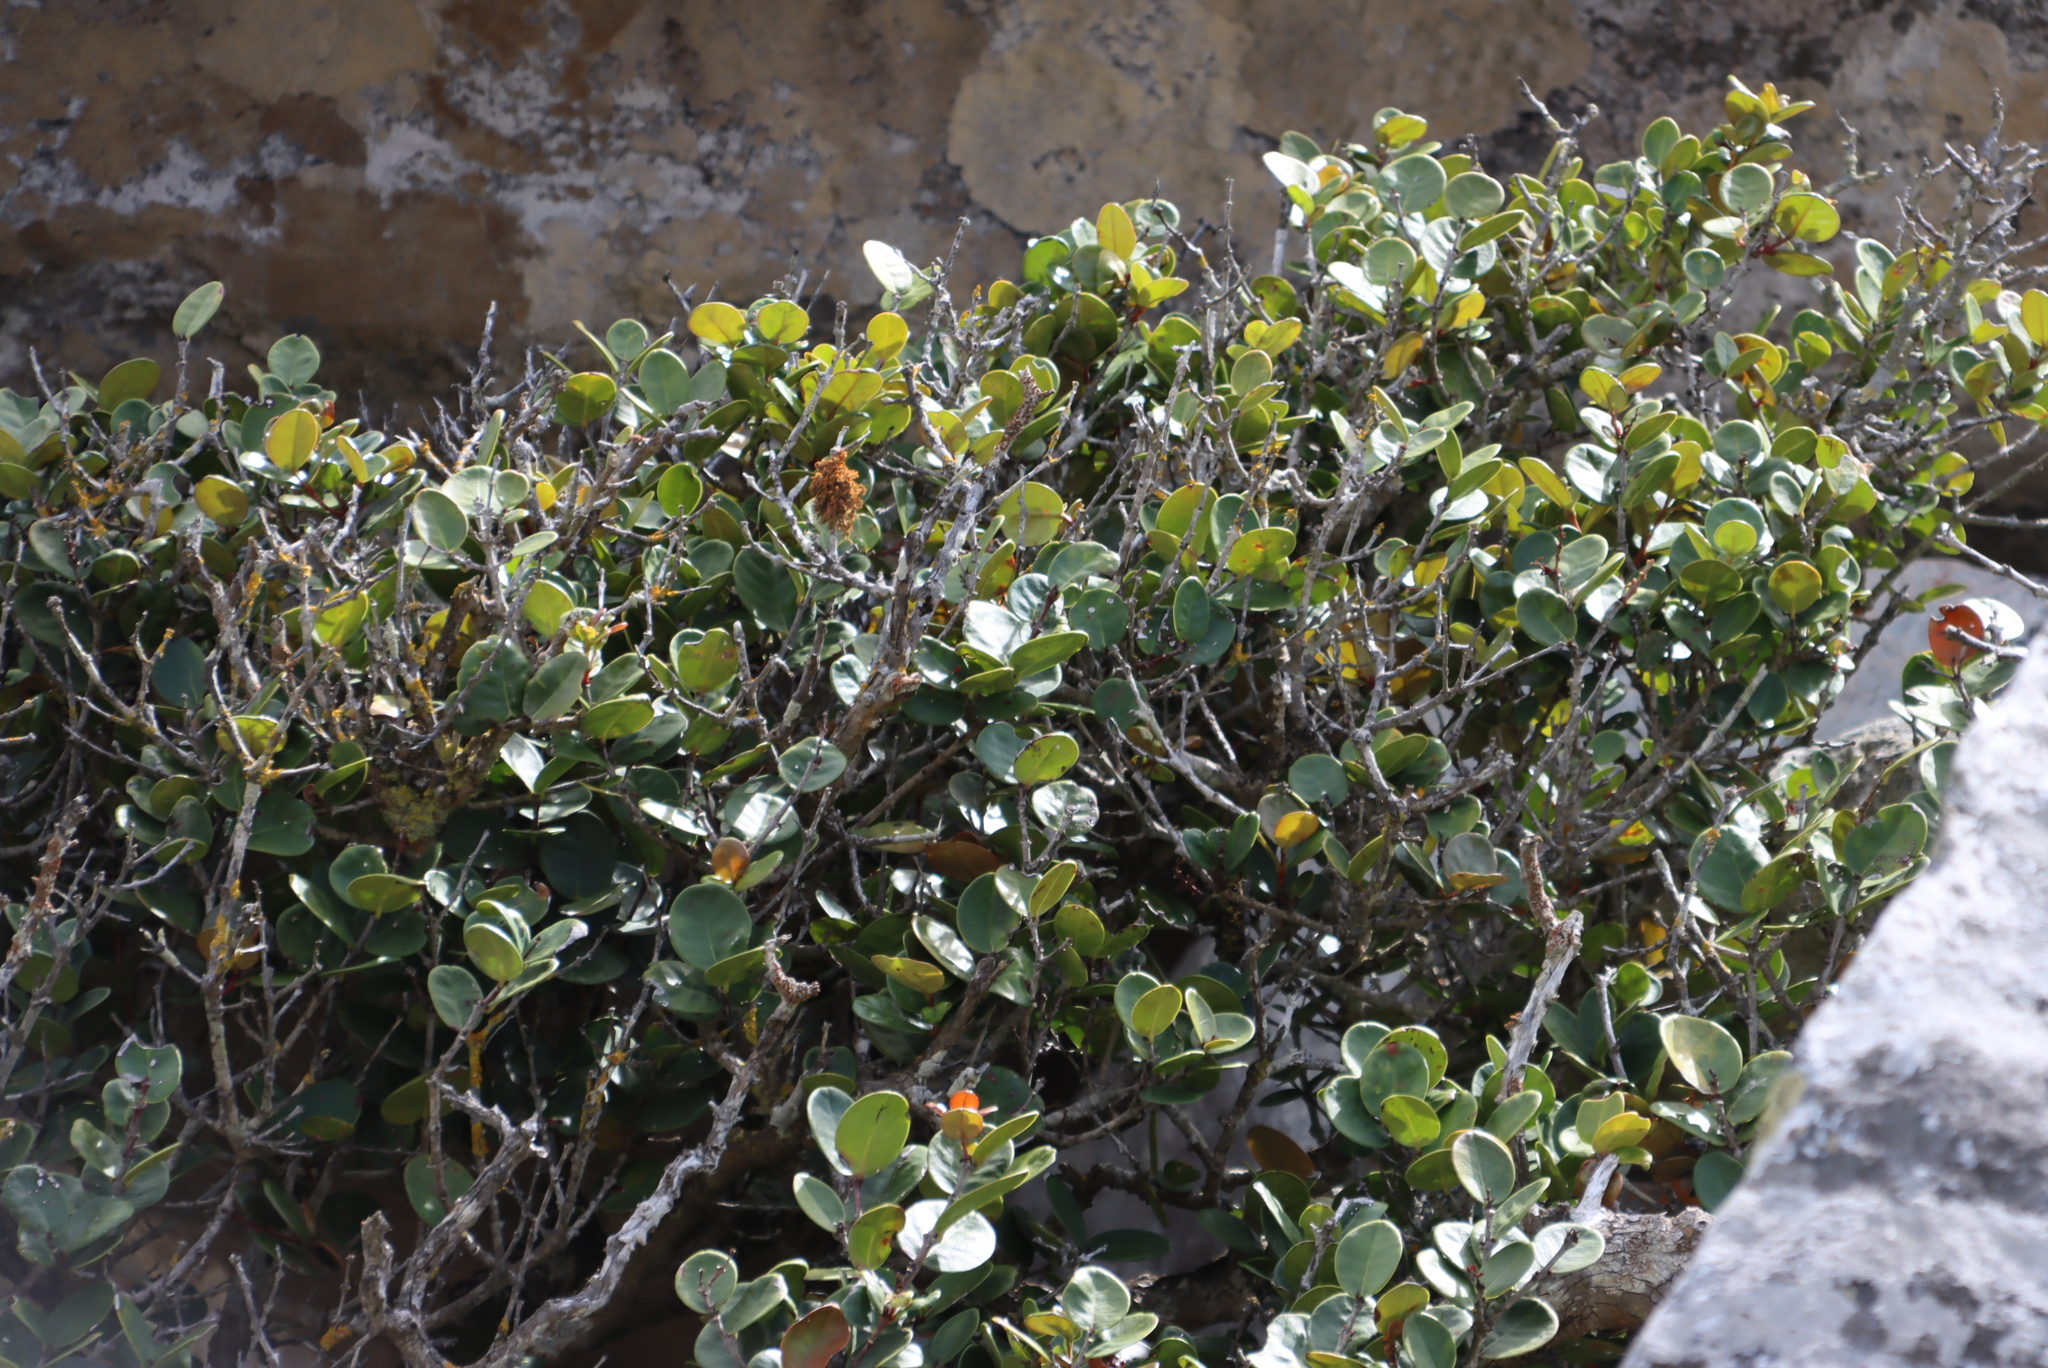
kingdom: Plantae
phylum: Tracheophyta
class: Magnoliopsida
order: Celastrales
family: Celastraceae
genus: Maurocenia
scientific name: Maurocenia frangula
